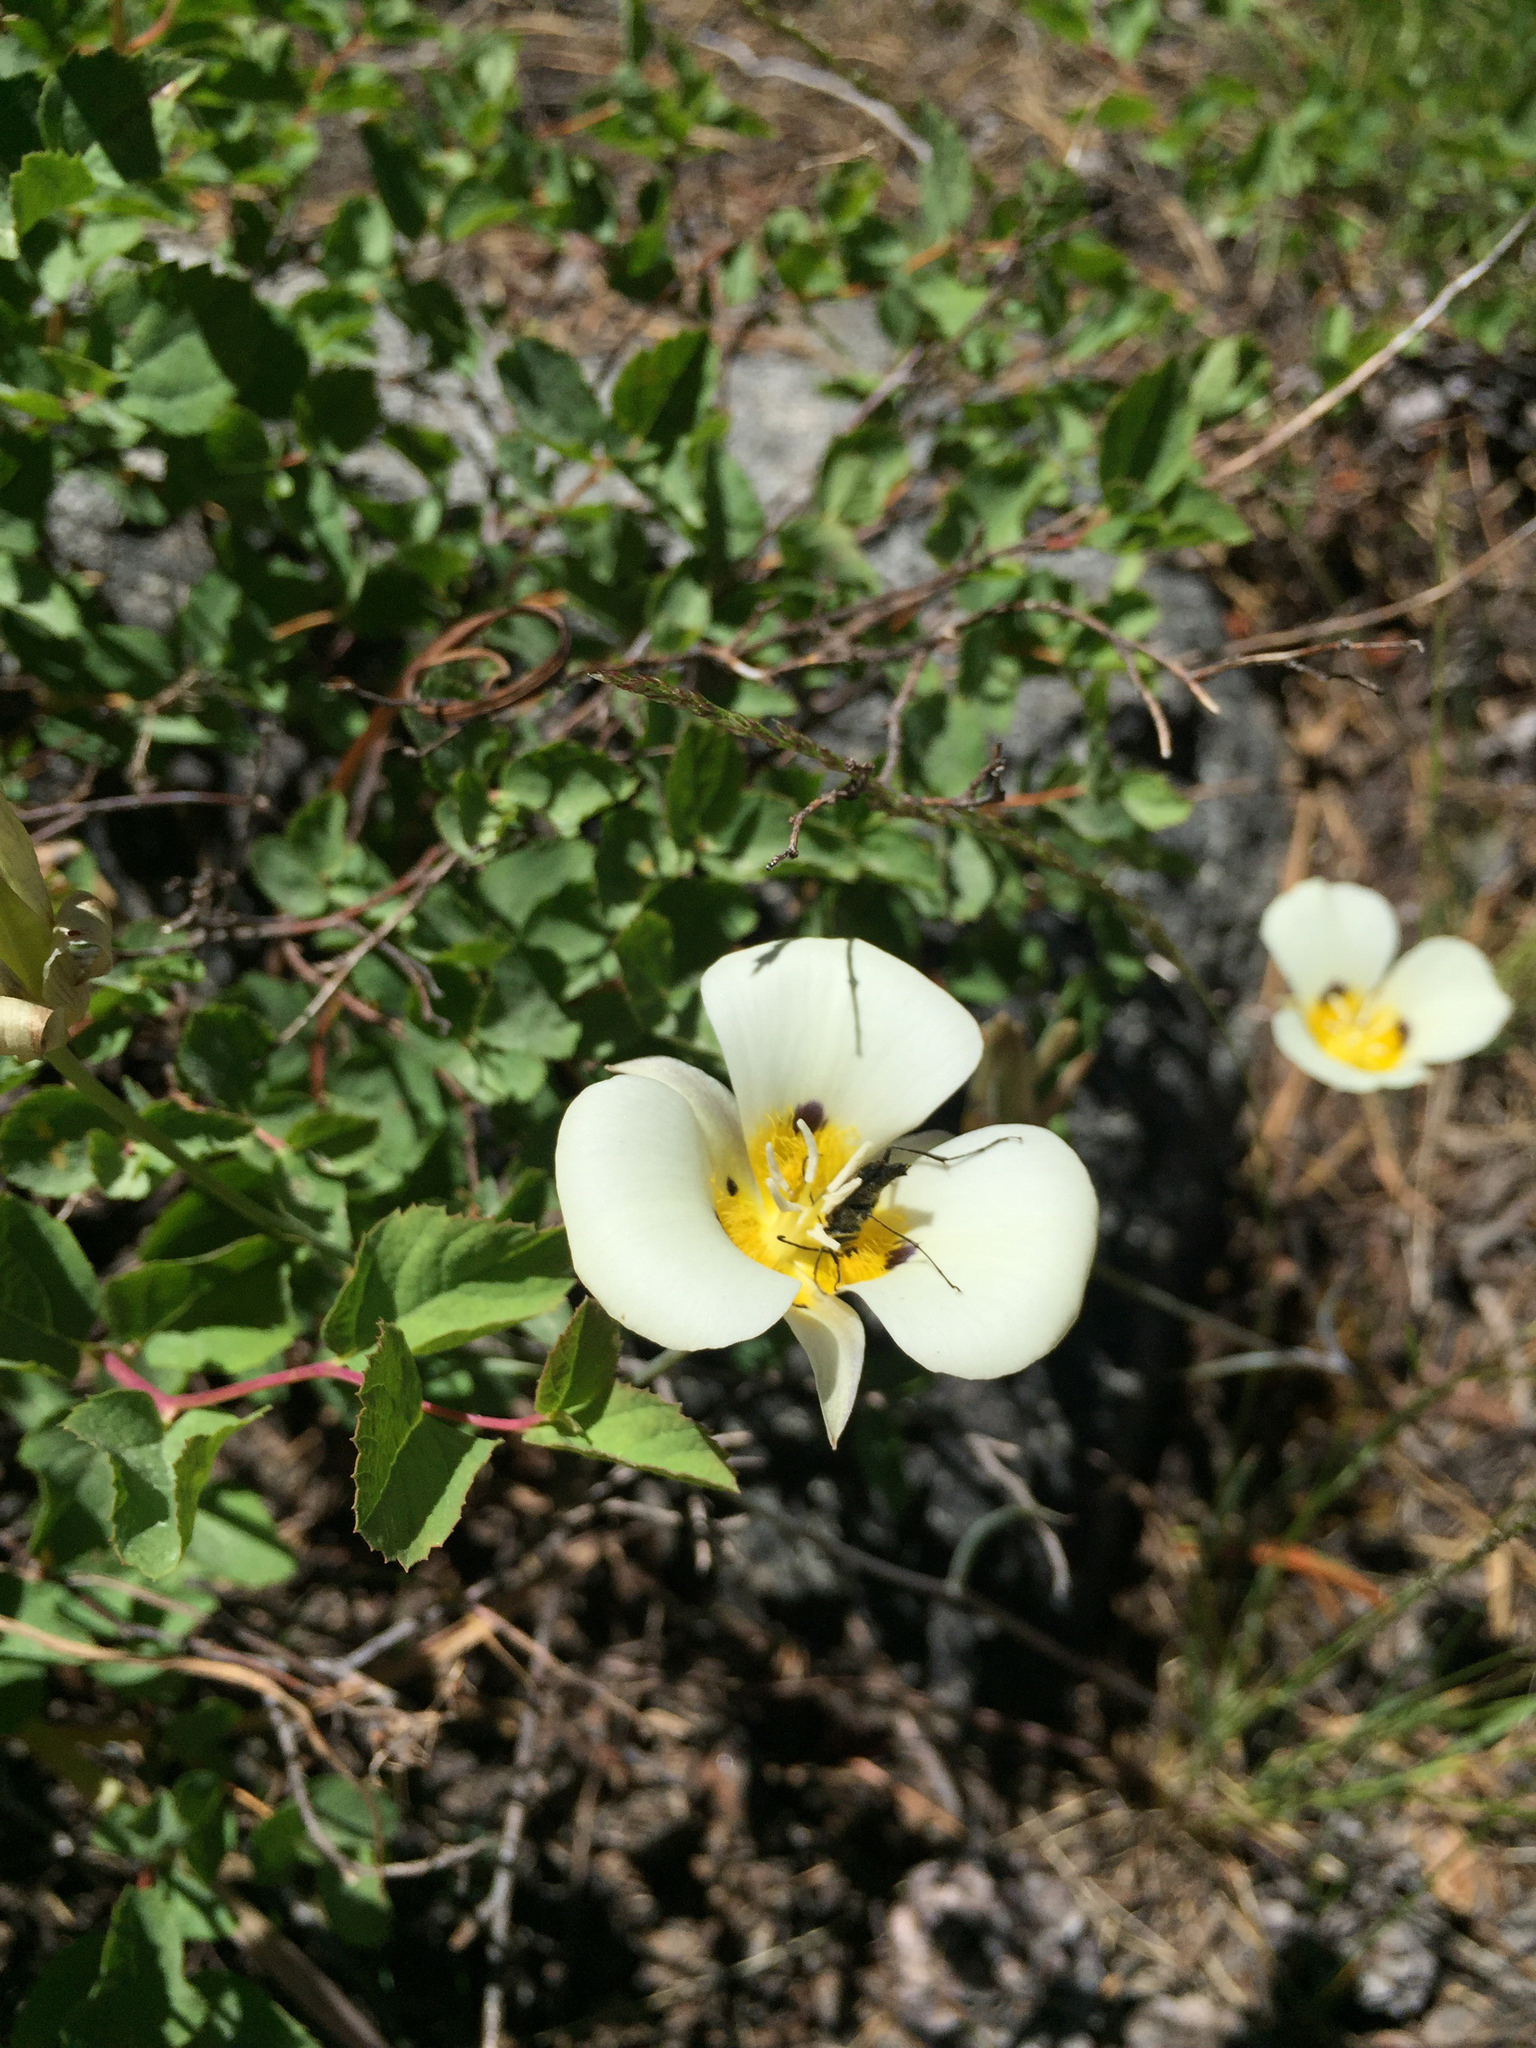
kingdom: Plantae
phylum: Tracheophyta
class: Liliopsida
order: Liliales
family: Liliaceae
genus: Calochortus
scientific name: Calochortus leichtlinii
